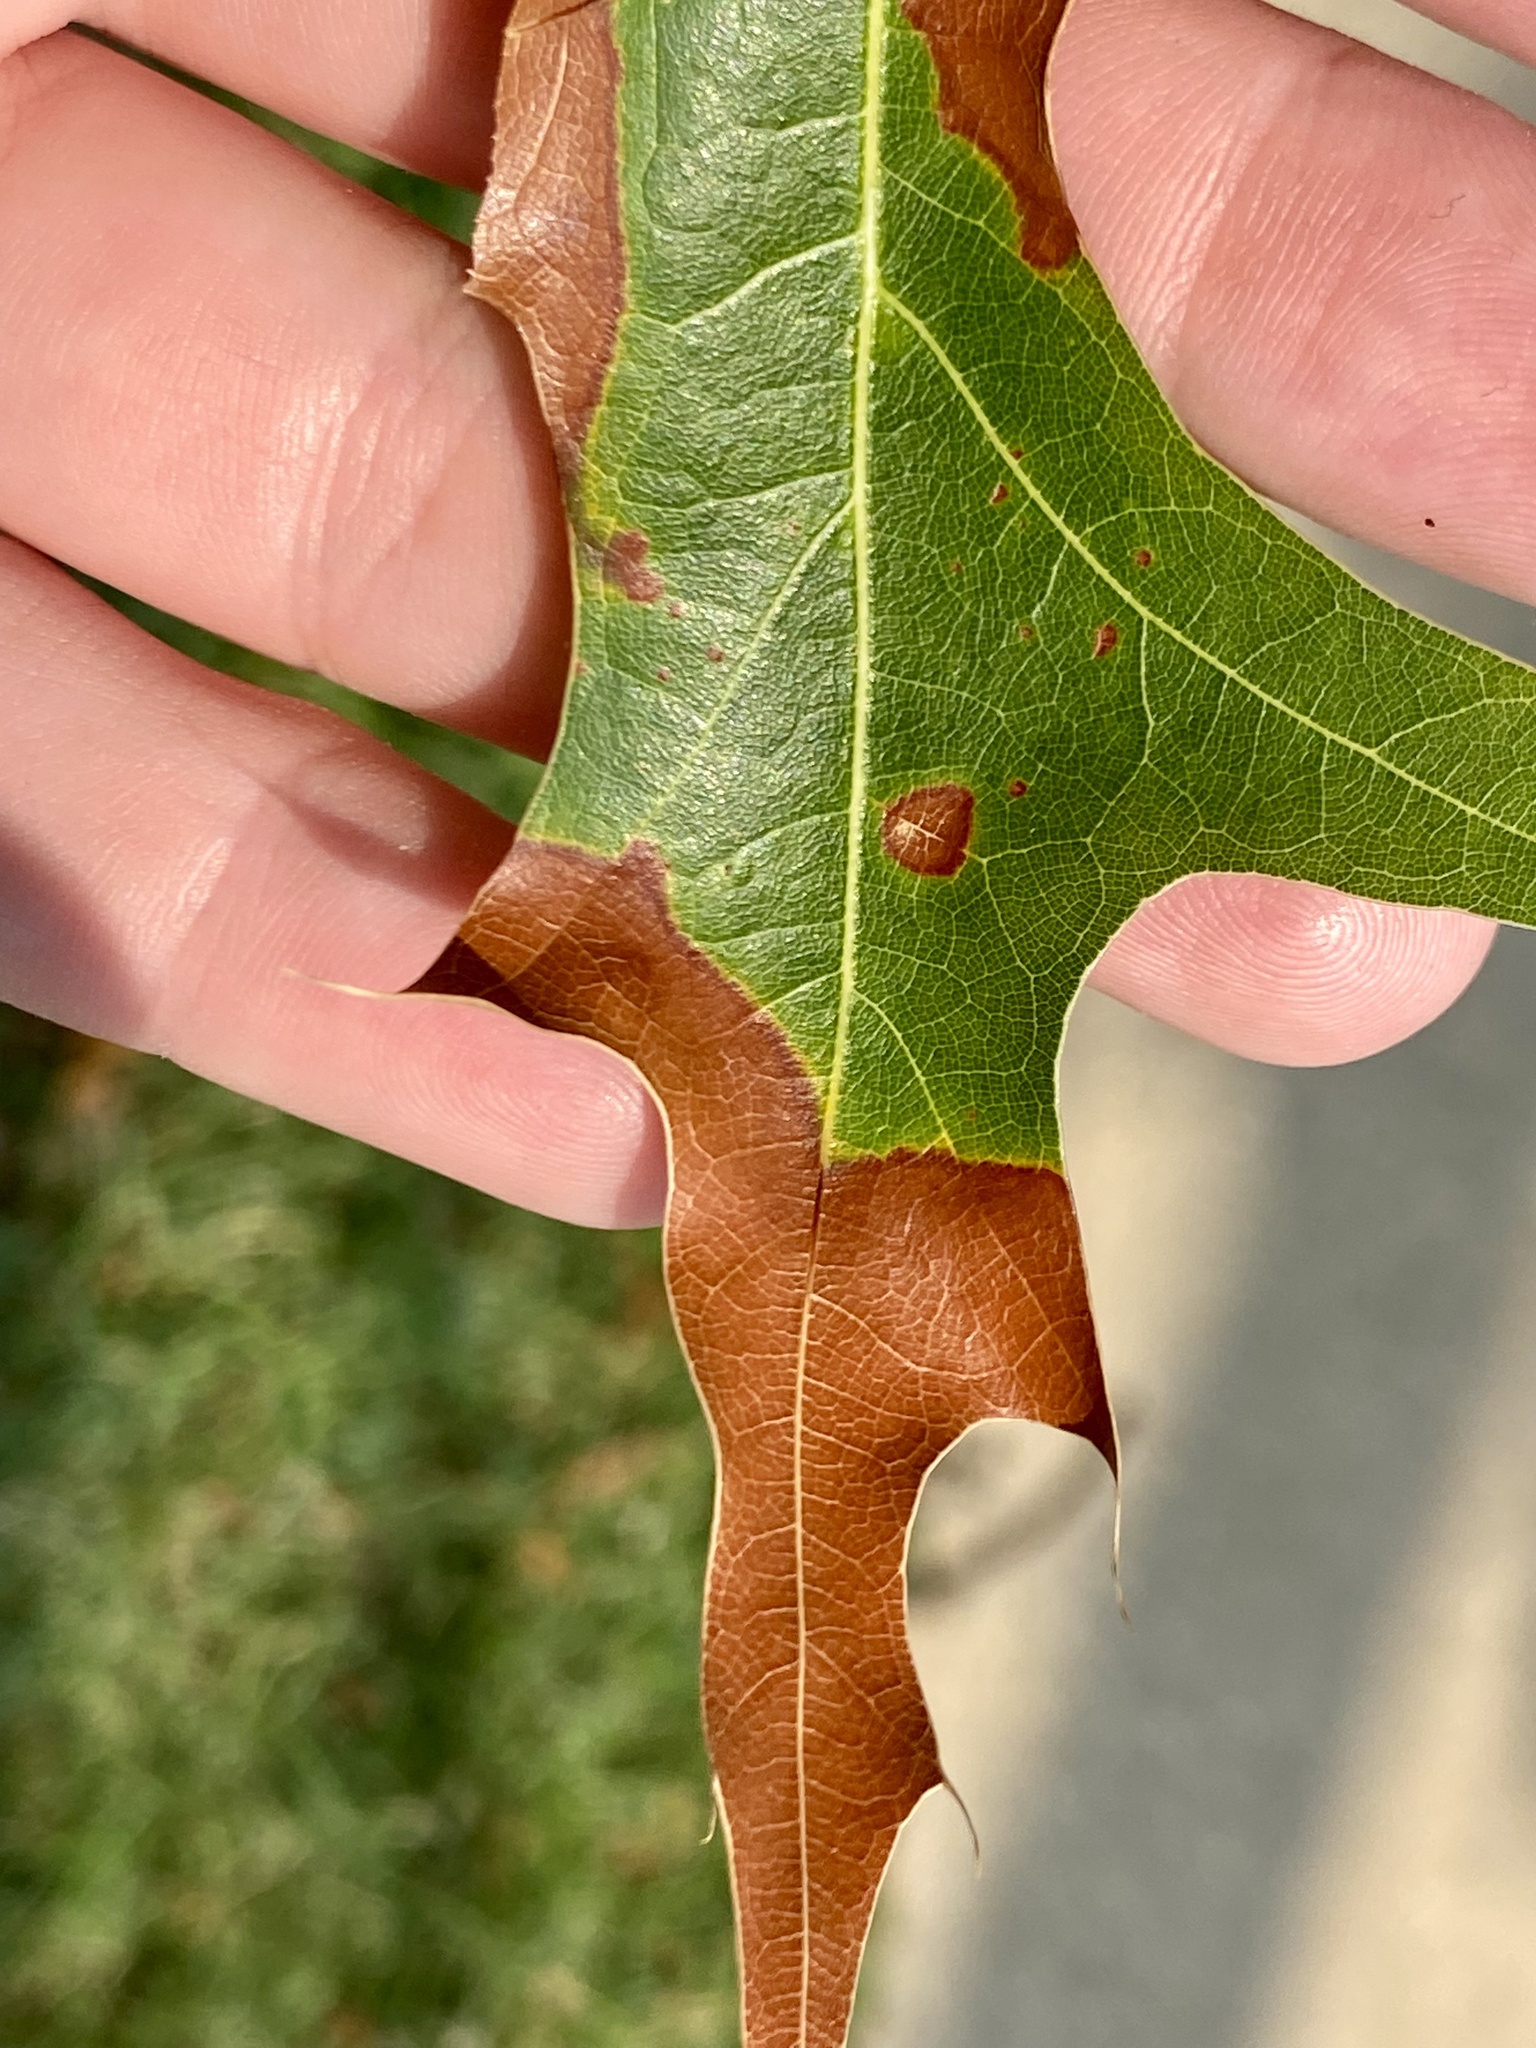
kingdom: Bacteria
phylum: Proteobacteria
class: Gammaproteobacteria
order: Xanthomonadales
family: Xanthomonadaceae
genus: Xylella
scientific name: Xylella fastidiosa
